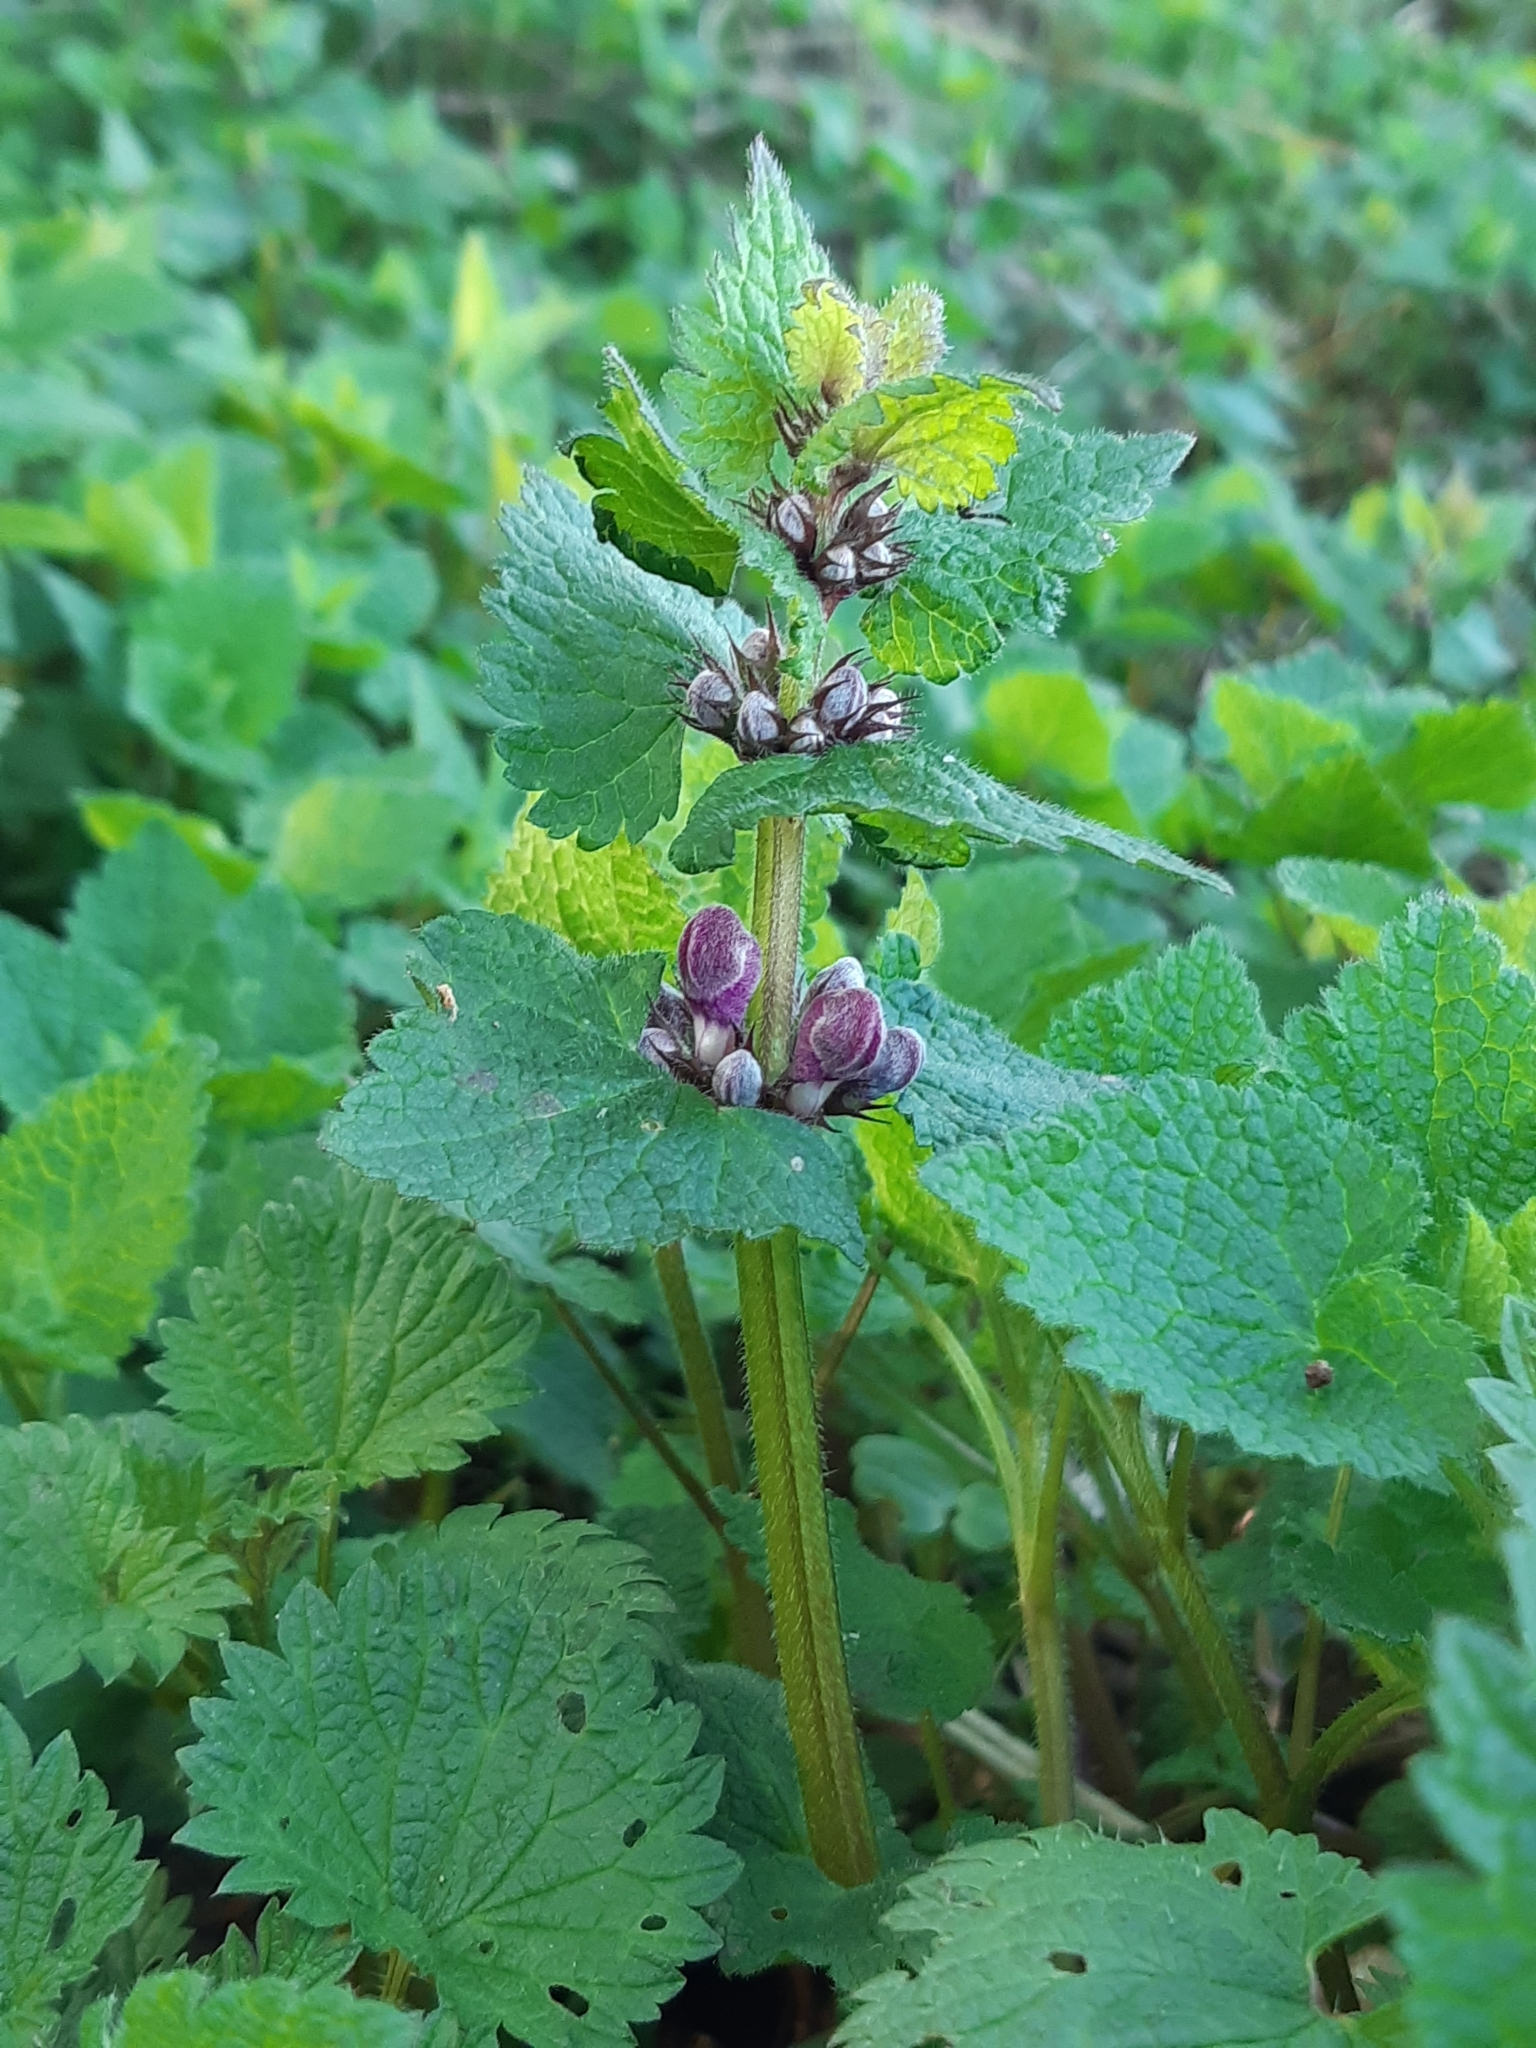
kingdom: Plantae
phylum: Tracheophyta
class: Magnoliopsida
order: Lamiales
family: Lamiaceae
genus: Lamium
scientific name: Lamium maculatum
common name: Spotted dead-nettle
